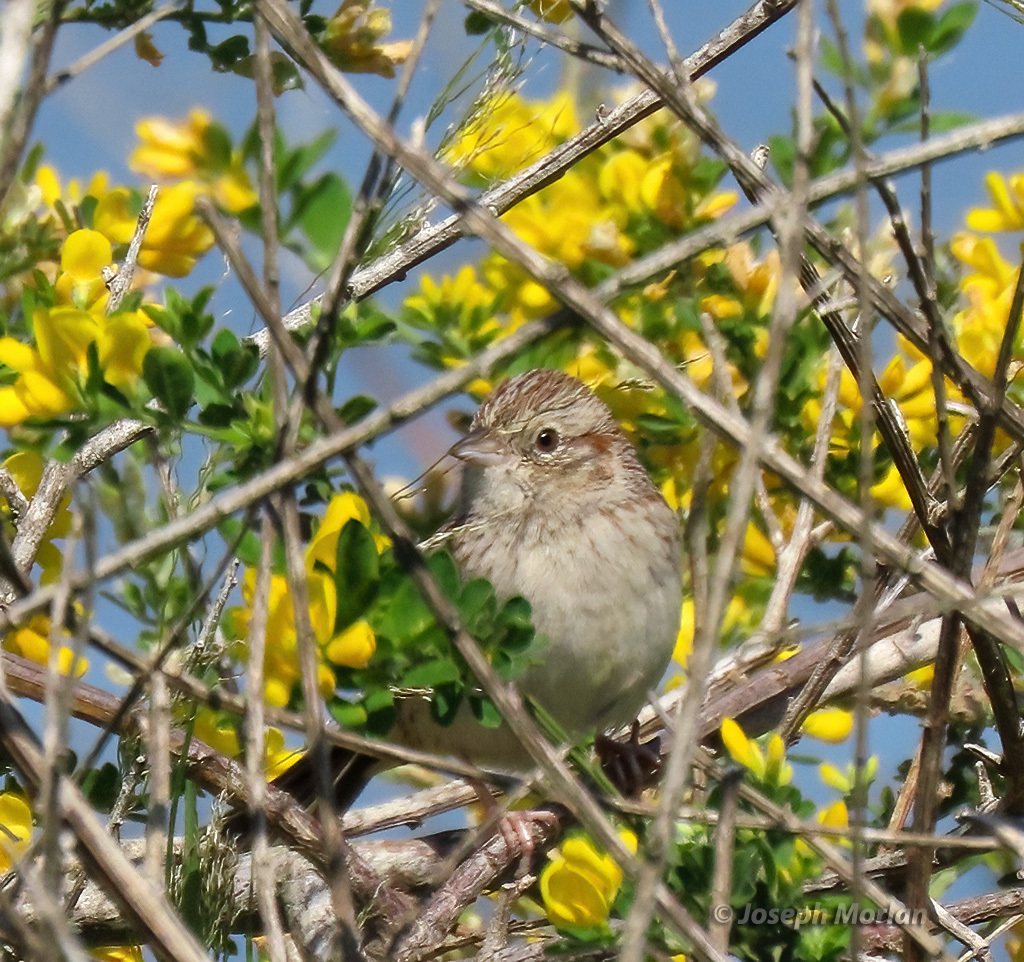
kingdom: Animalia
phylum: Chordata
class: Aves
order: Passeriformes
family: Passerellidae
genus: Peucaea
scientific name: Peucaea cassinii
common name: Cassin's sparrow
